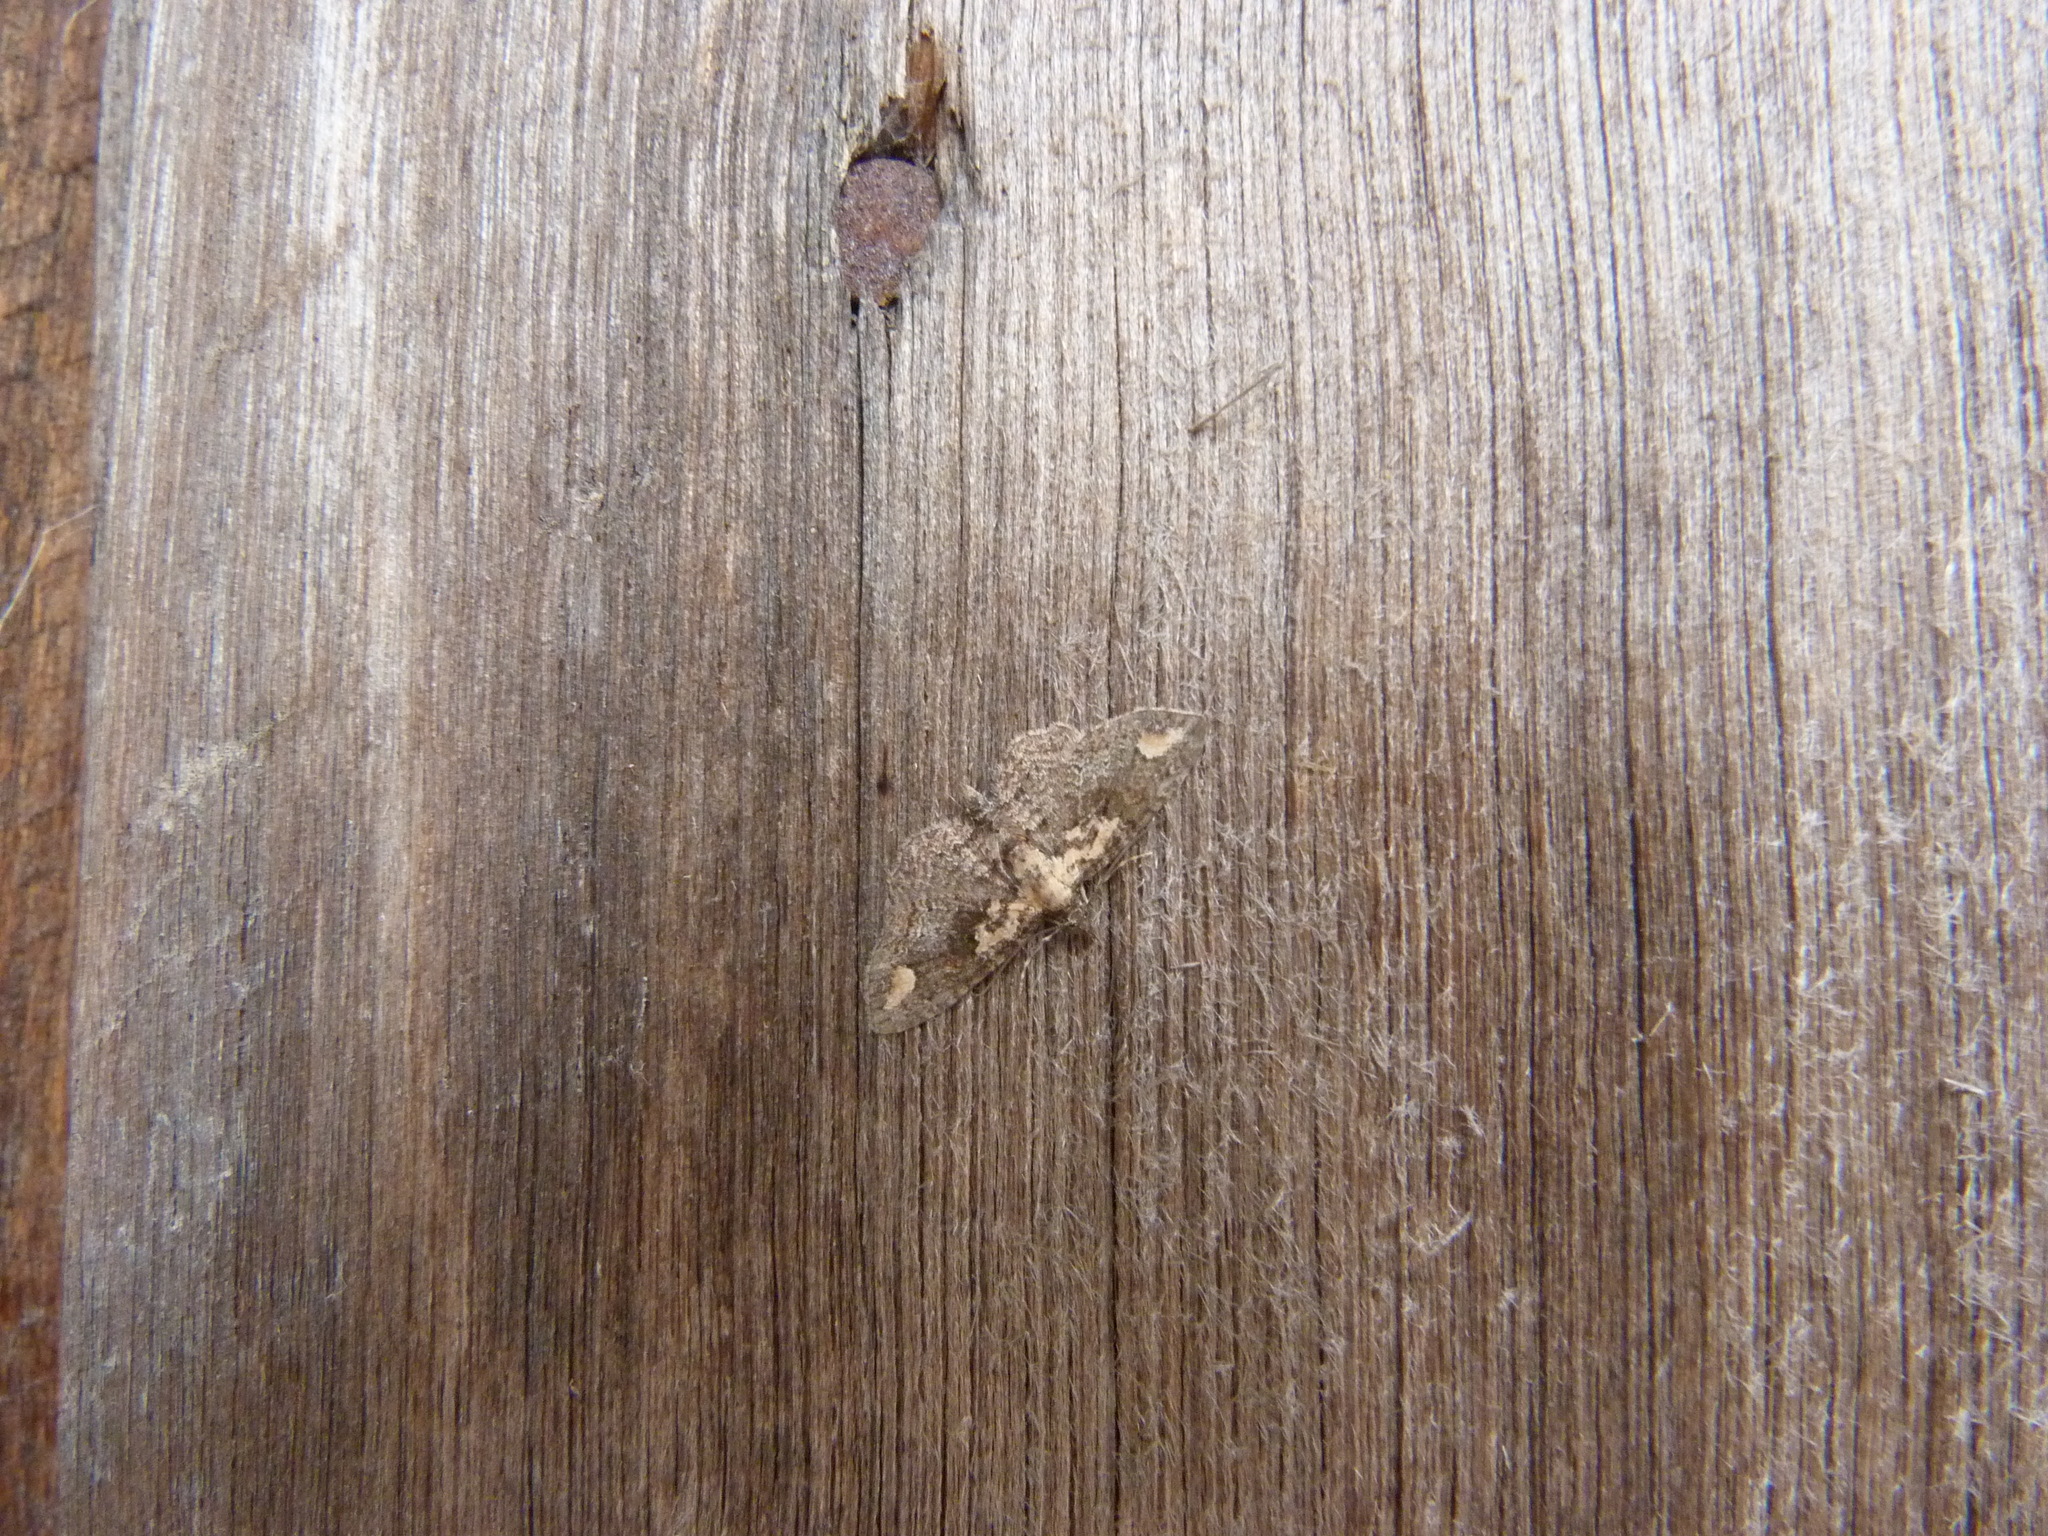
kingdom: Animalia
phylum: Arthropoda
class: Insecta
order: Lepidoptera
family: Geometridae
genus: Chloroclystis
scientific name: Chloroclystis pallidiplaga
